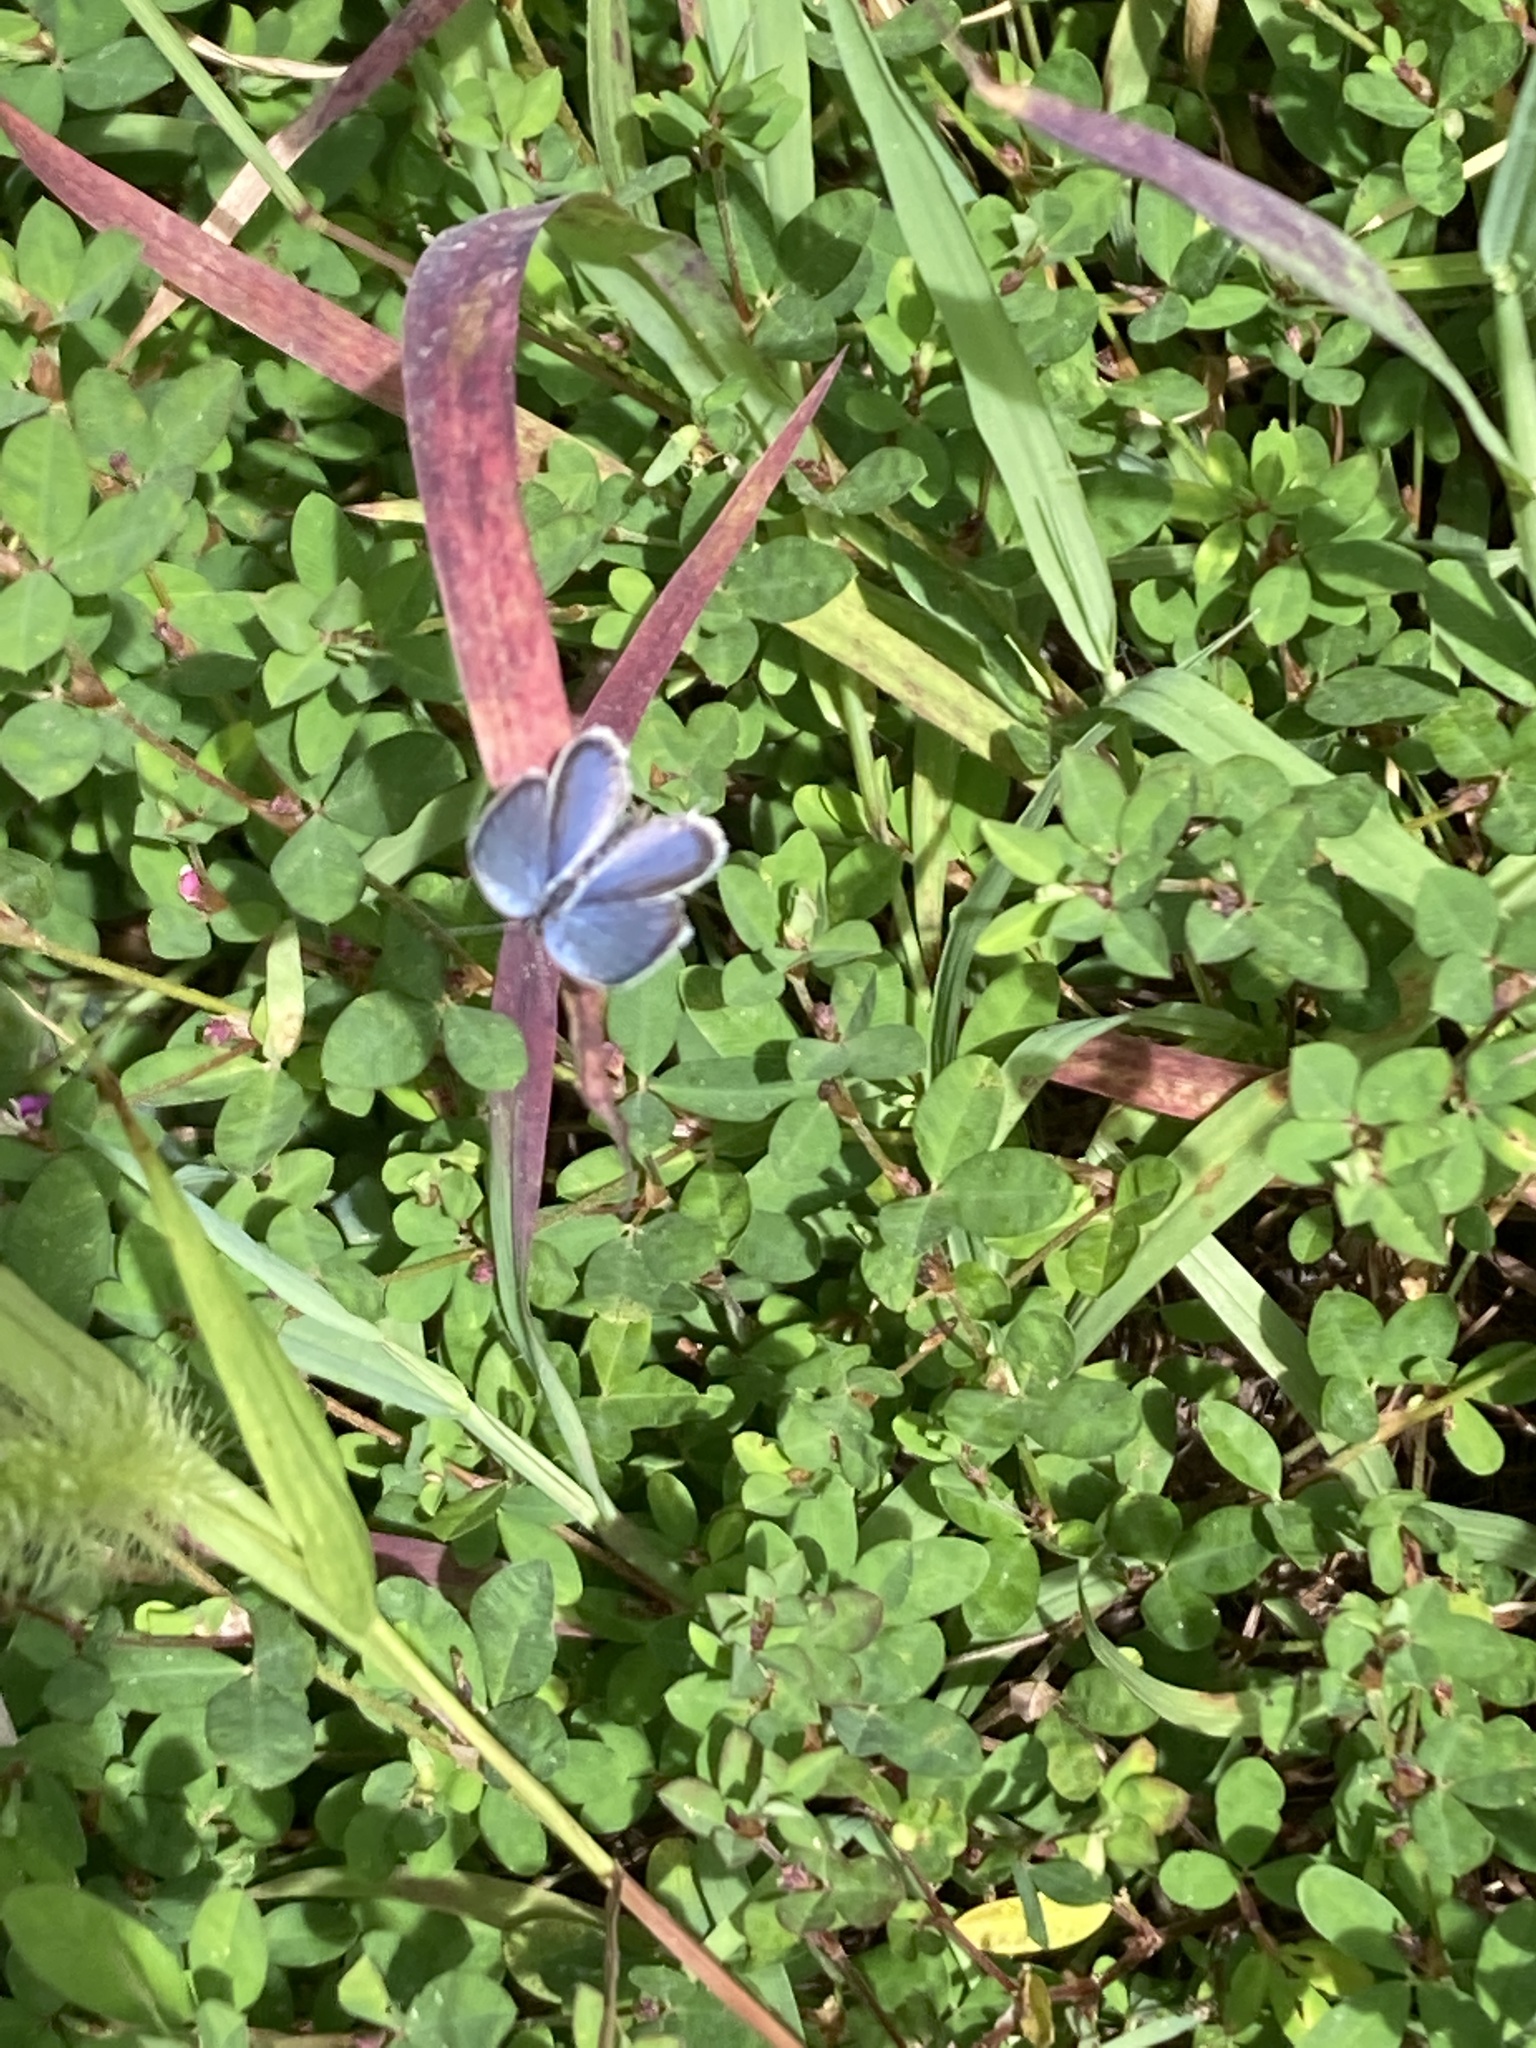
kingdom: Animalia
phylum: Arthropoda
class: Insecta
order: Lepidoptera
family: Lycaenidae
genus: Elkalyce
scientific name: Elkalyce comyntas
